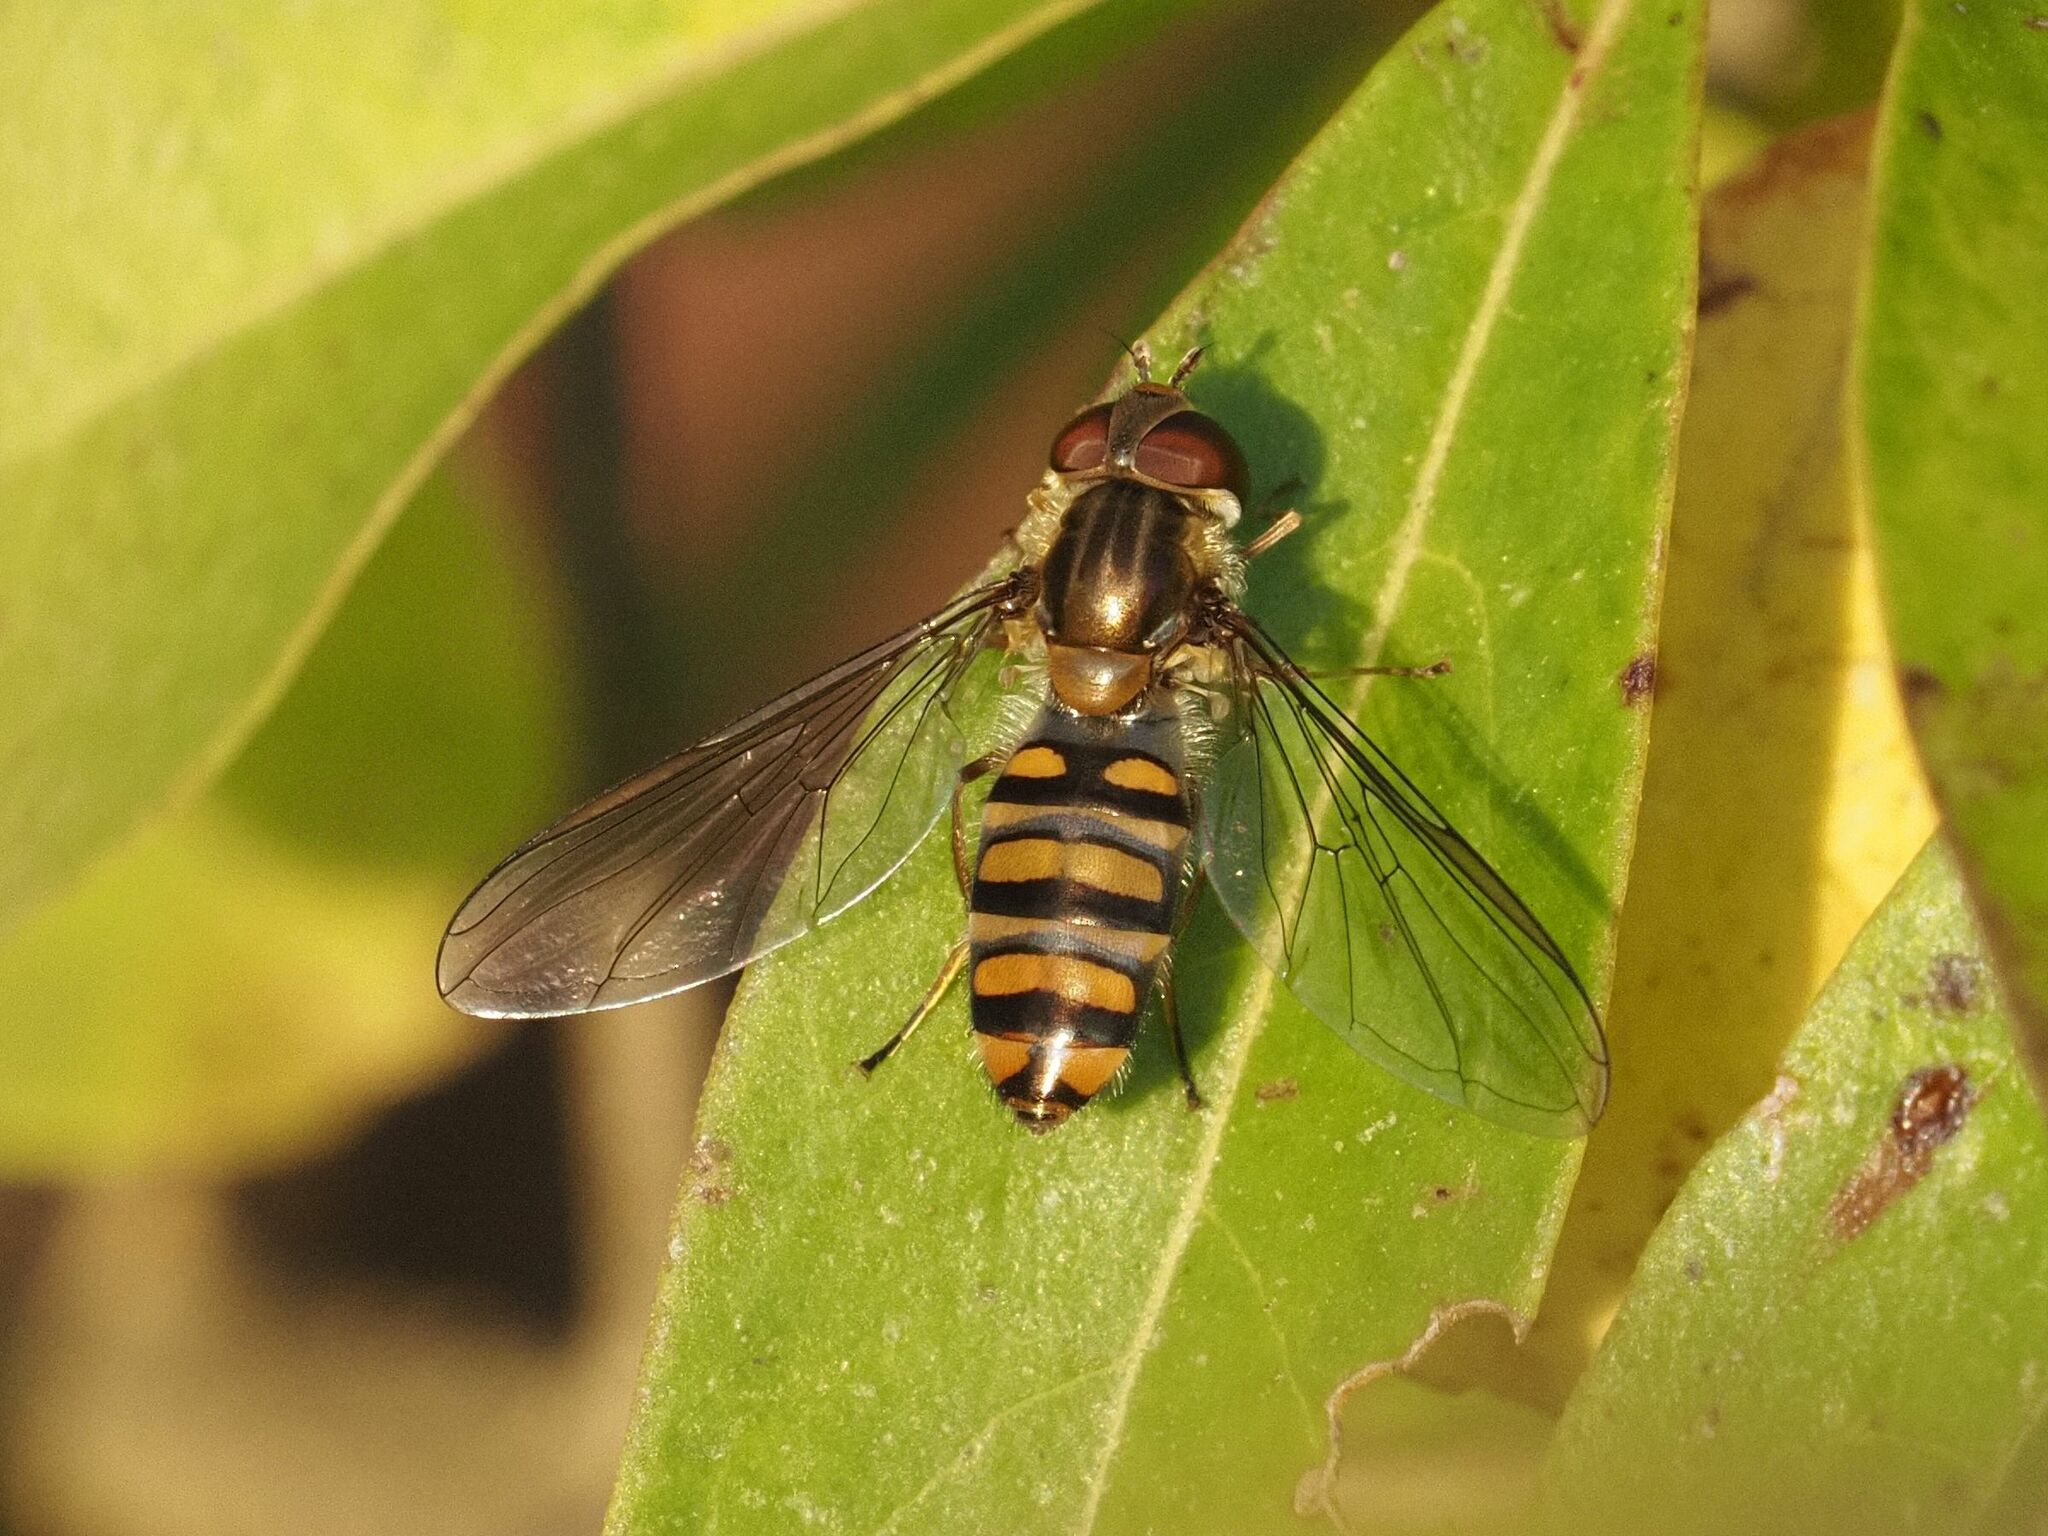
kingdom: Animalia
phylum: Arthropoda
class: Insecta
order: Diptera
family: Syrphidae
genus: Episyrphus
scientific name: Episyrphus balteatus
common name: Marmalade hoverfly
